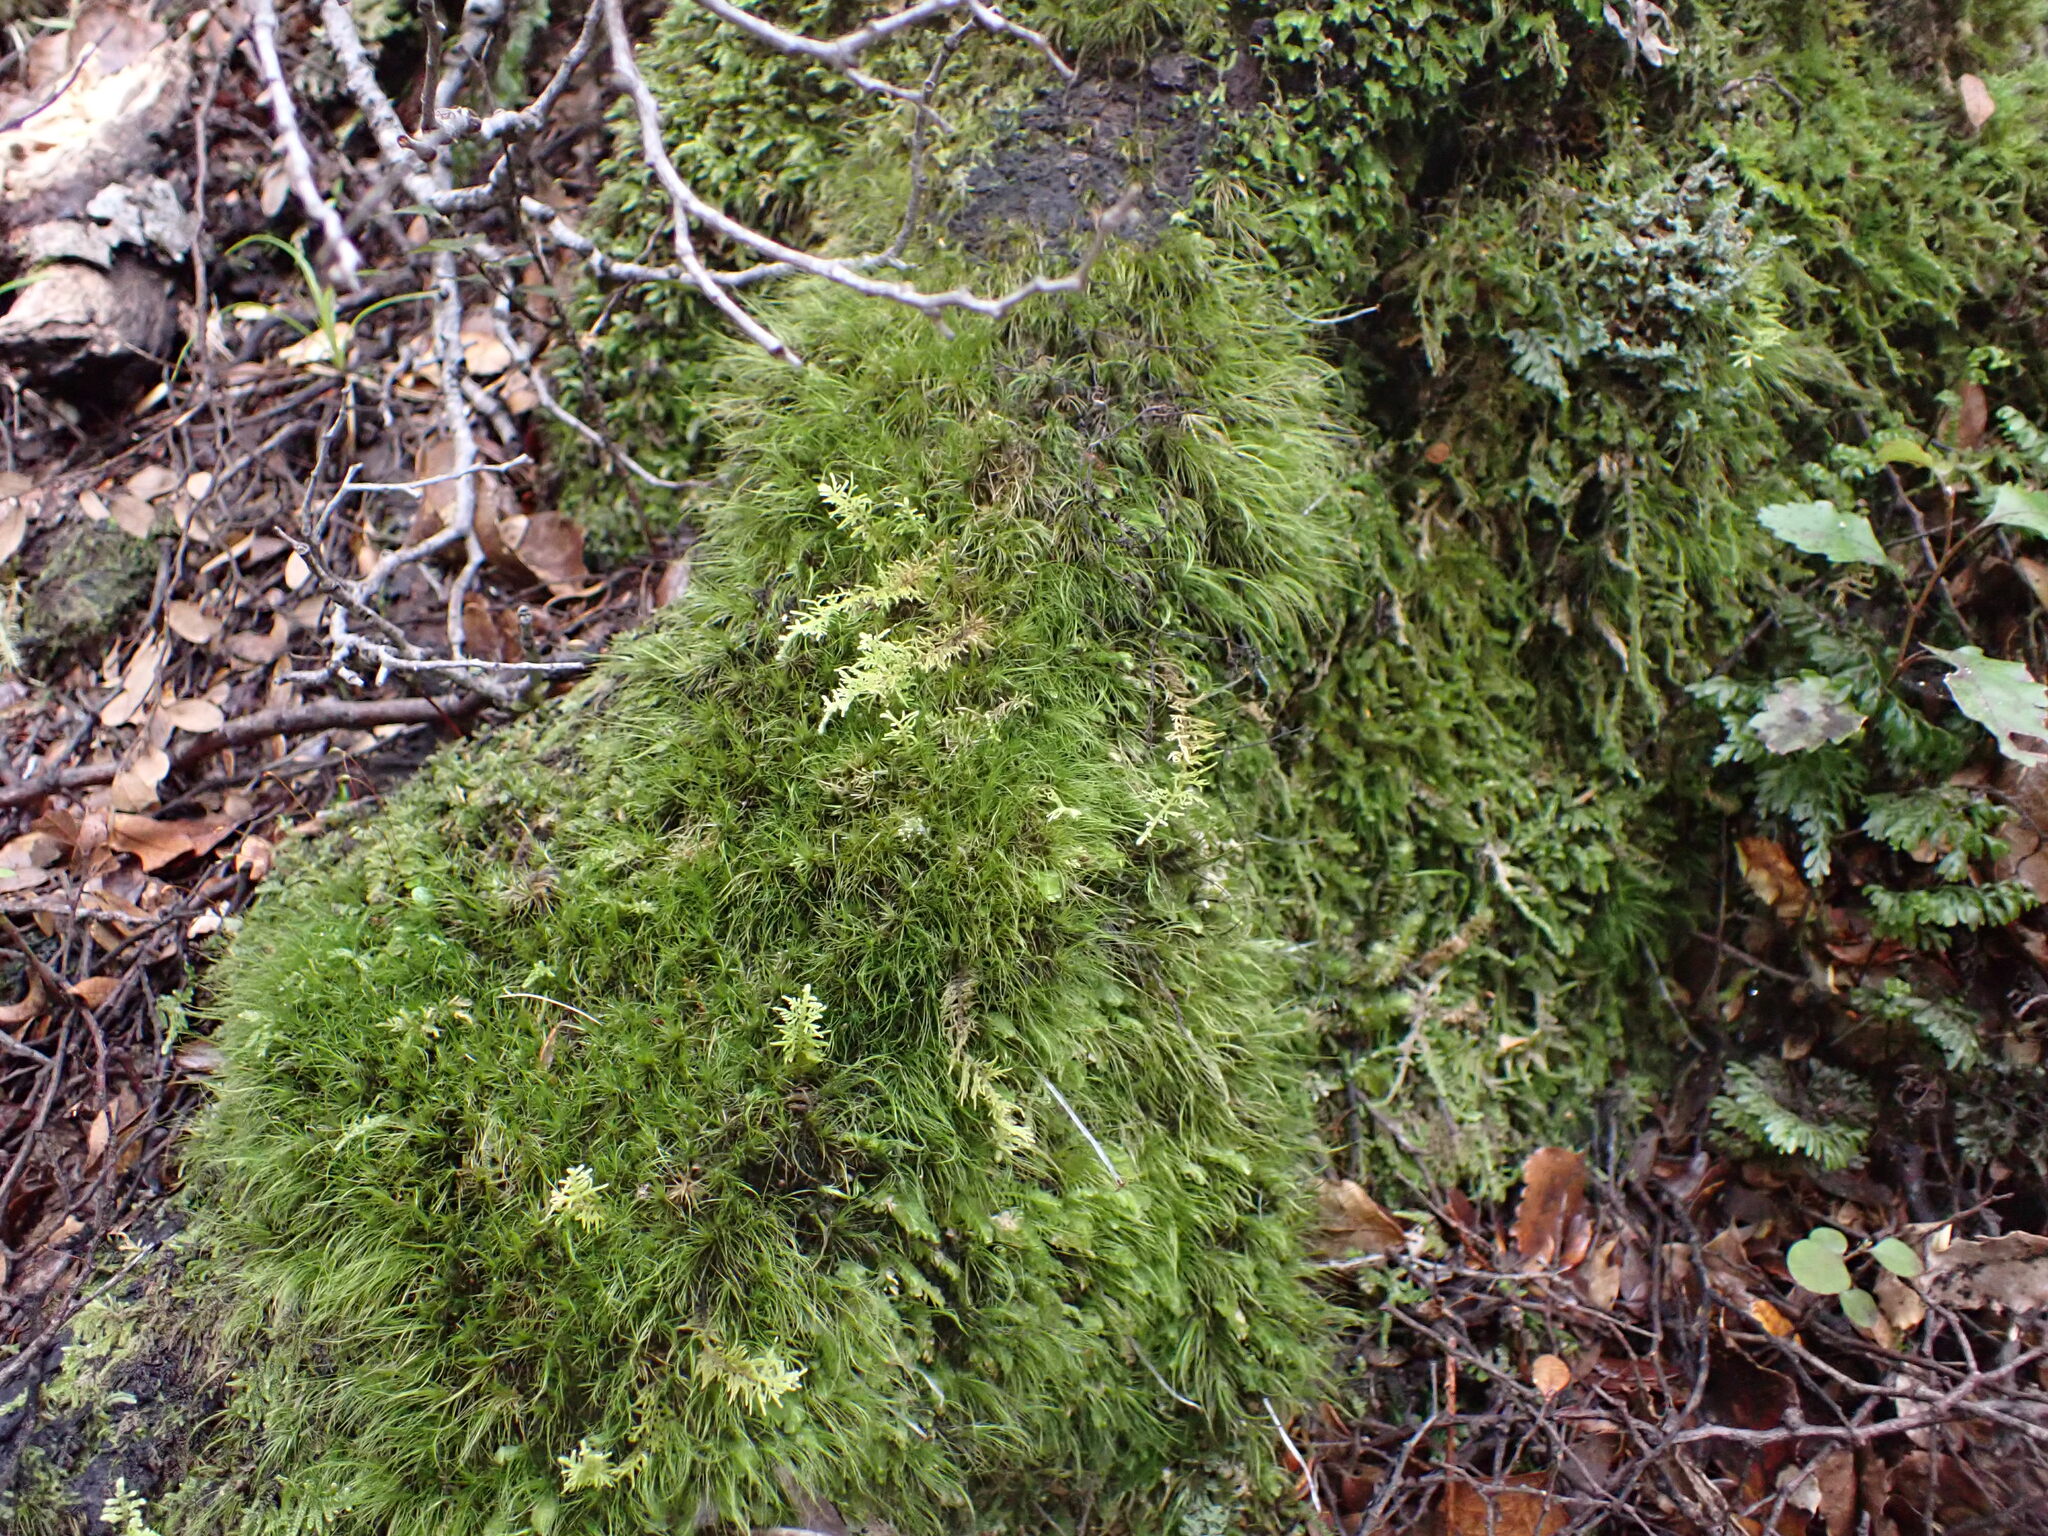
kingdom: Plantae
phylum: Bryophyta
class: Bryopsida
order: Dicranales
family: Dicranaceae
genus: Dicranoloma
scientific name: Dicranoloma menziesii
